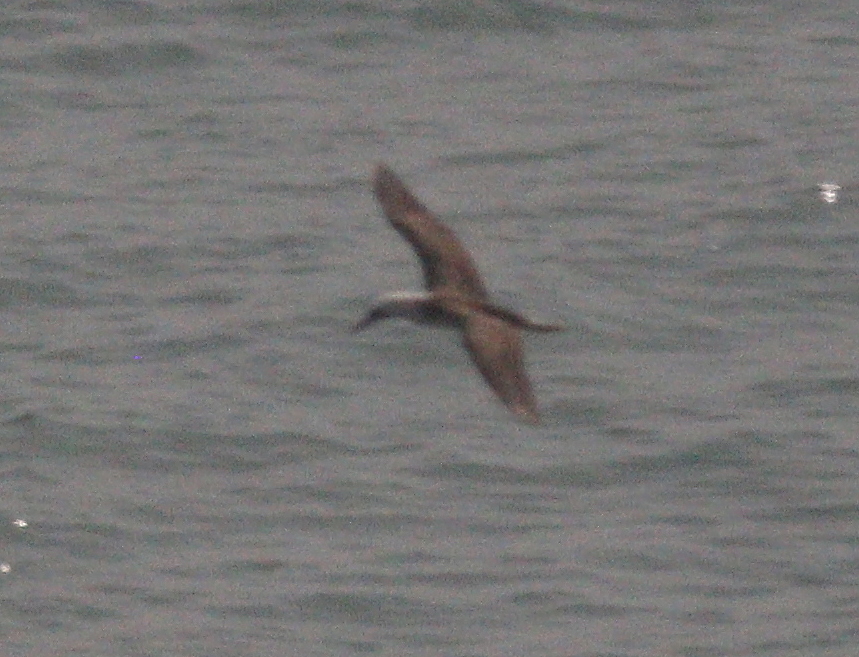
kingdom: Animalia
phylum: Chordata
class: Aves
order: Suliformes
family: Sulidae
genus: Sula
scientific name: Sula variegata
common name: Peruvian booby
